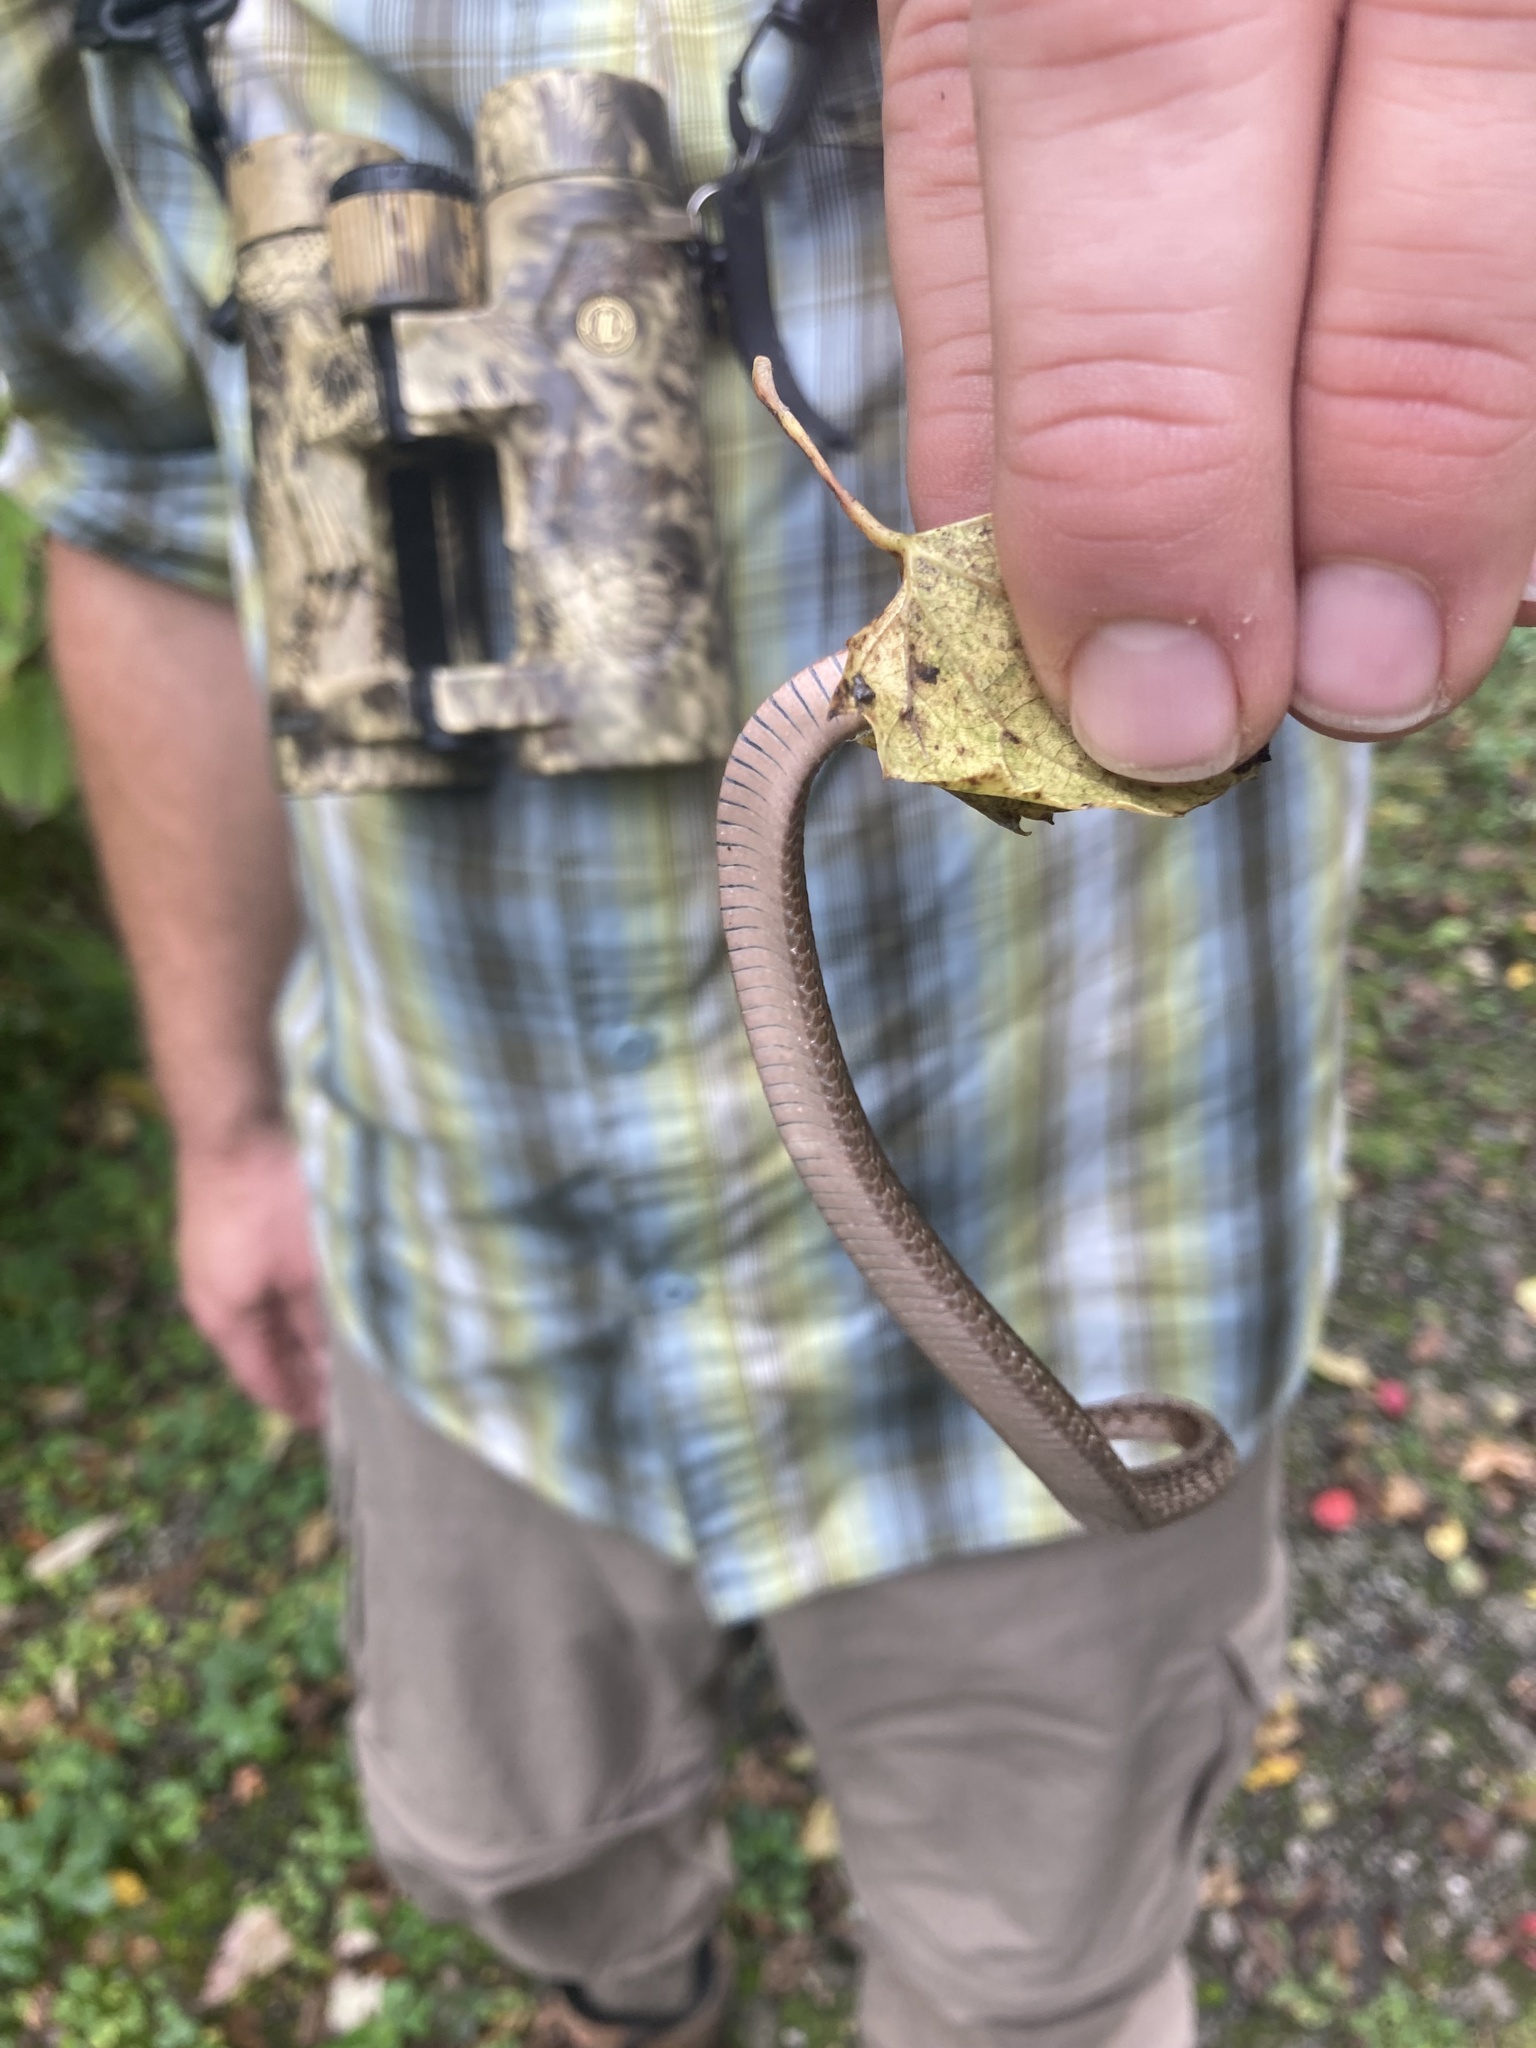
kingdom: Animalia
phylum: Chordata
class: Squamata
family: Colubridae
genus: Storeria
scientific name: Storeria dekayi
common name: (dekay’s) brown snake
